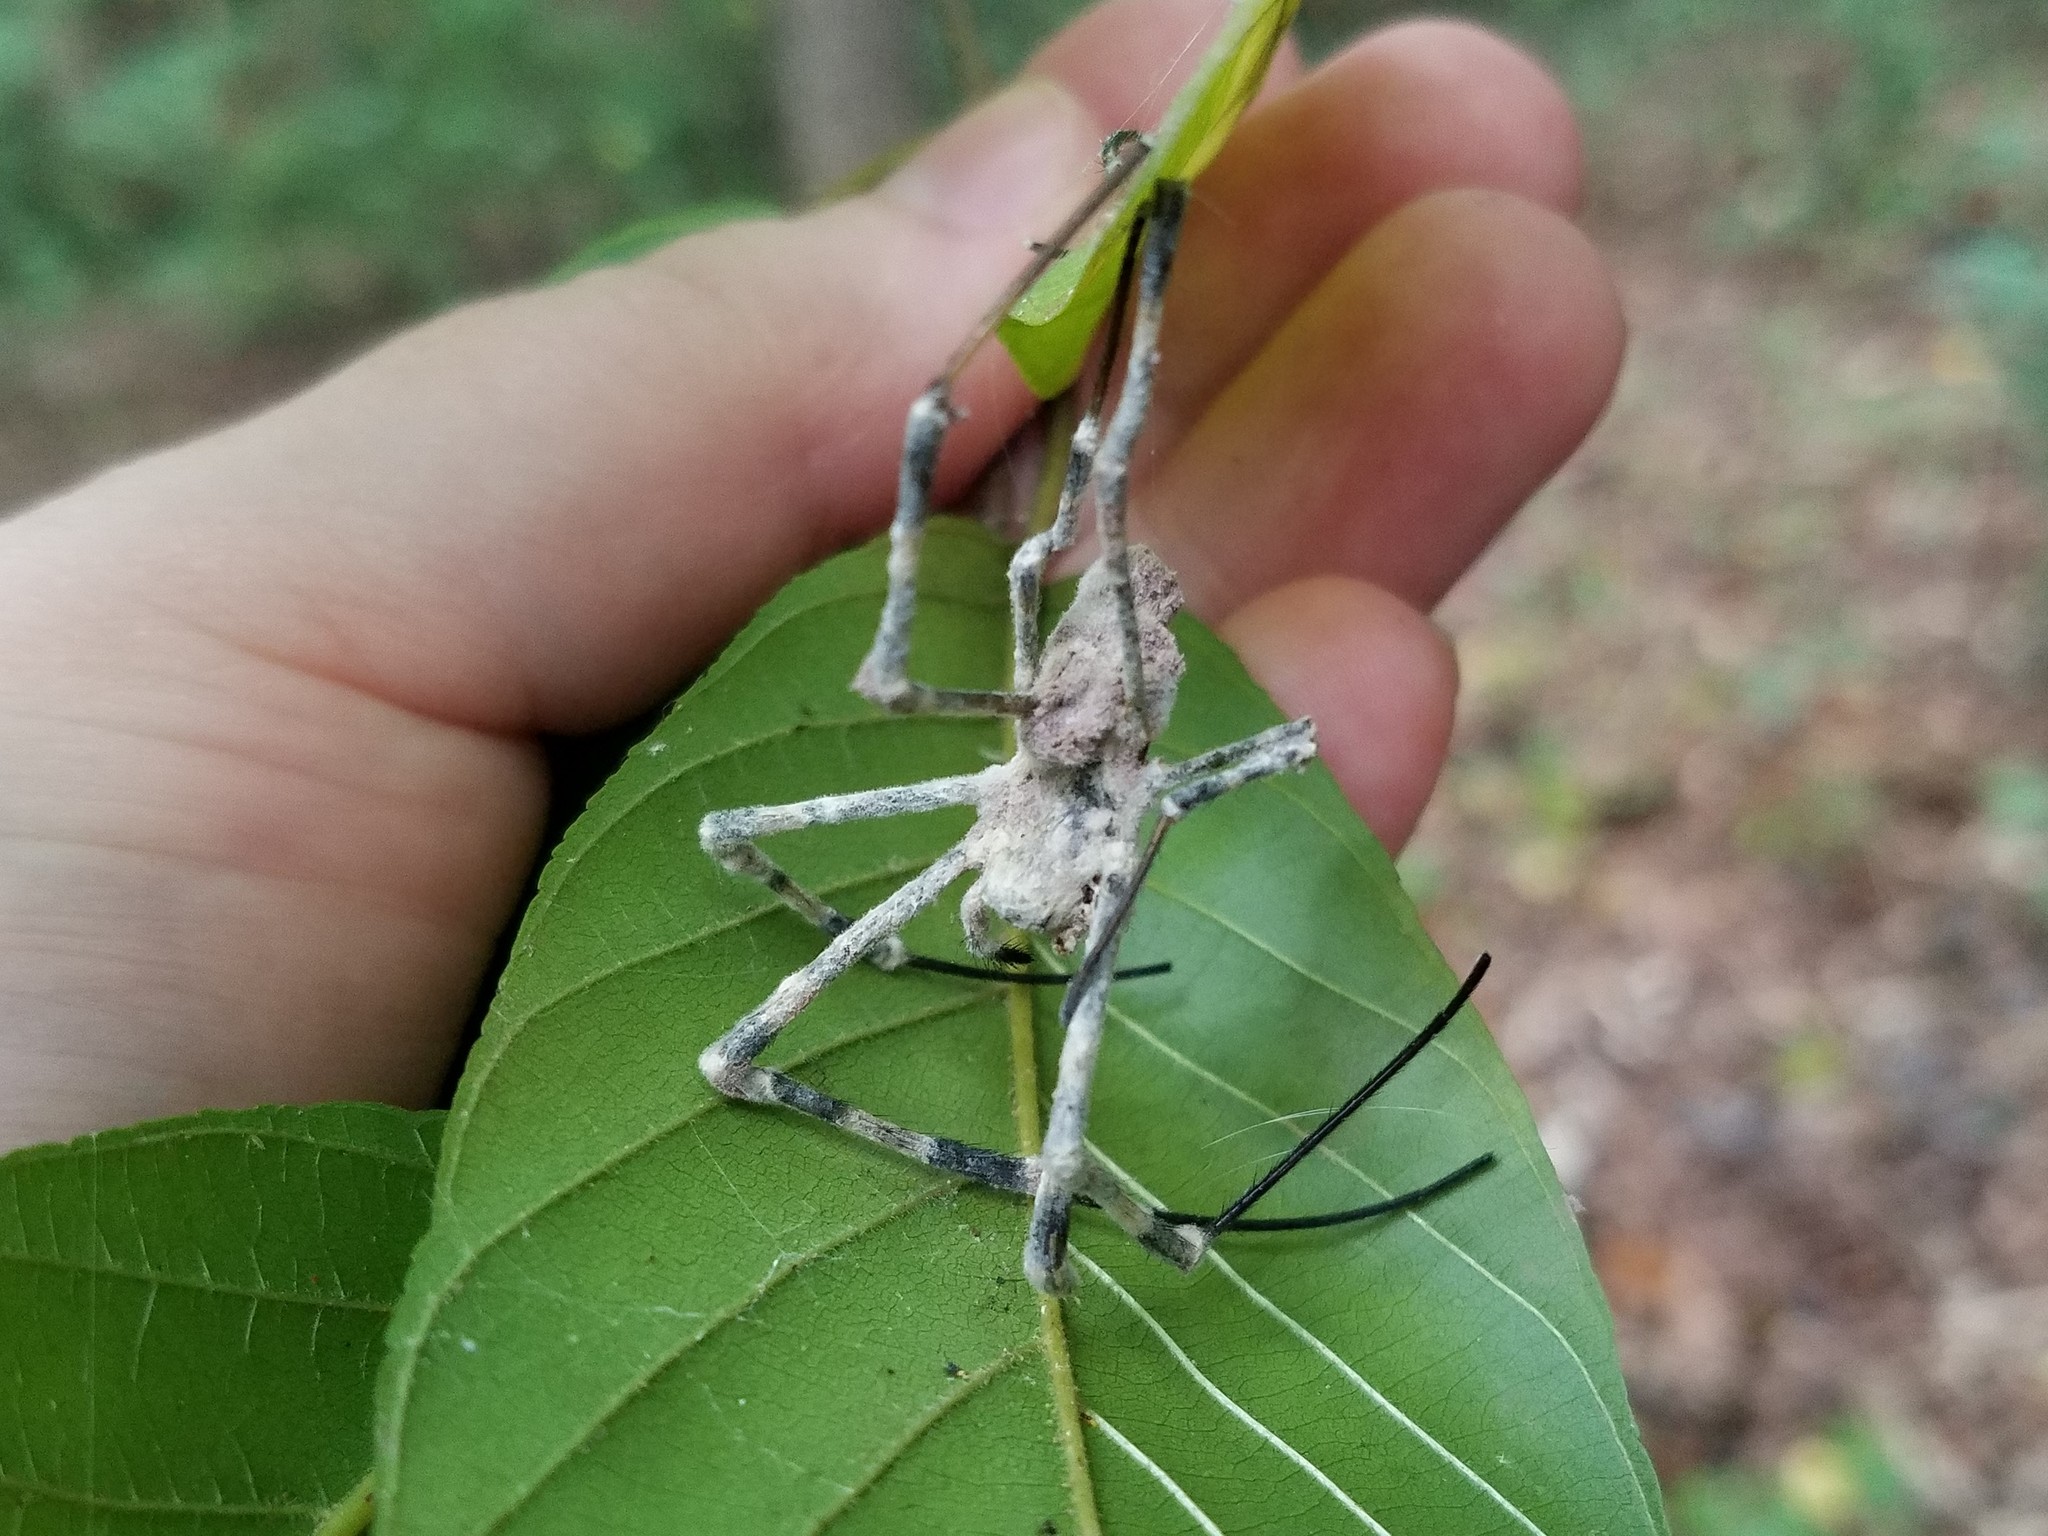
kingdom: Fungi
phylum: Ascomycota
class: Sordariomycetes
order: Hypocreales
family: Ophiocordycipitaceae
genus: Purpureocillium
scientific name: Purpureocillium atypicola
